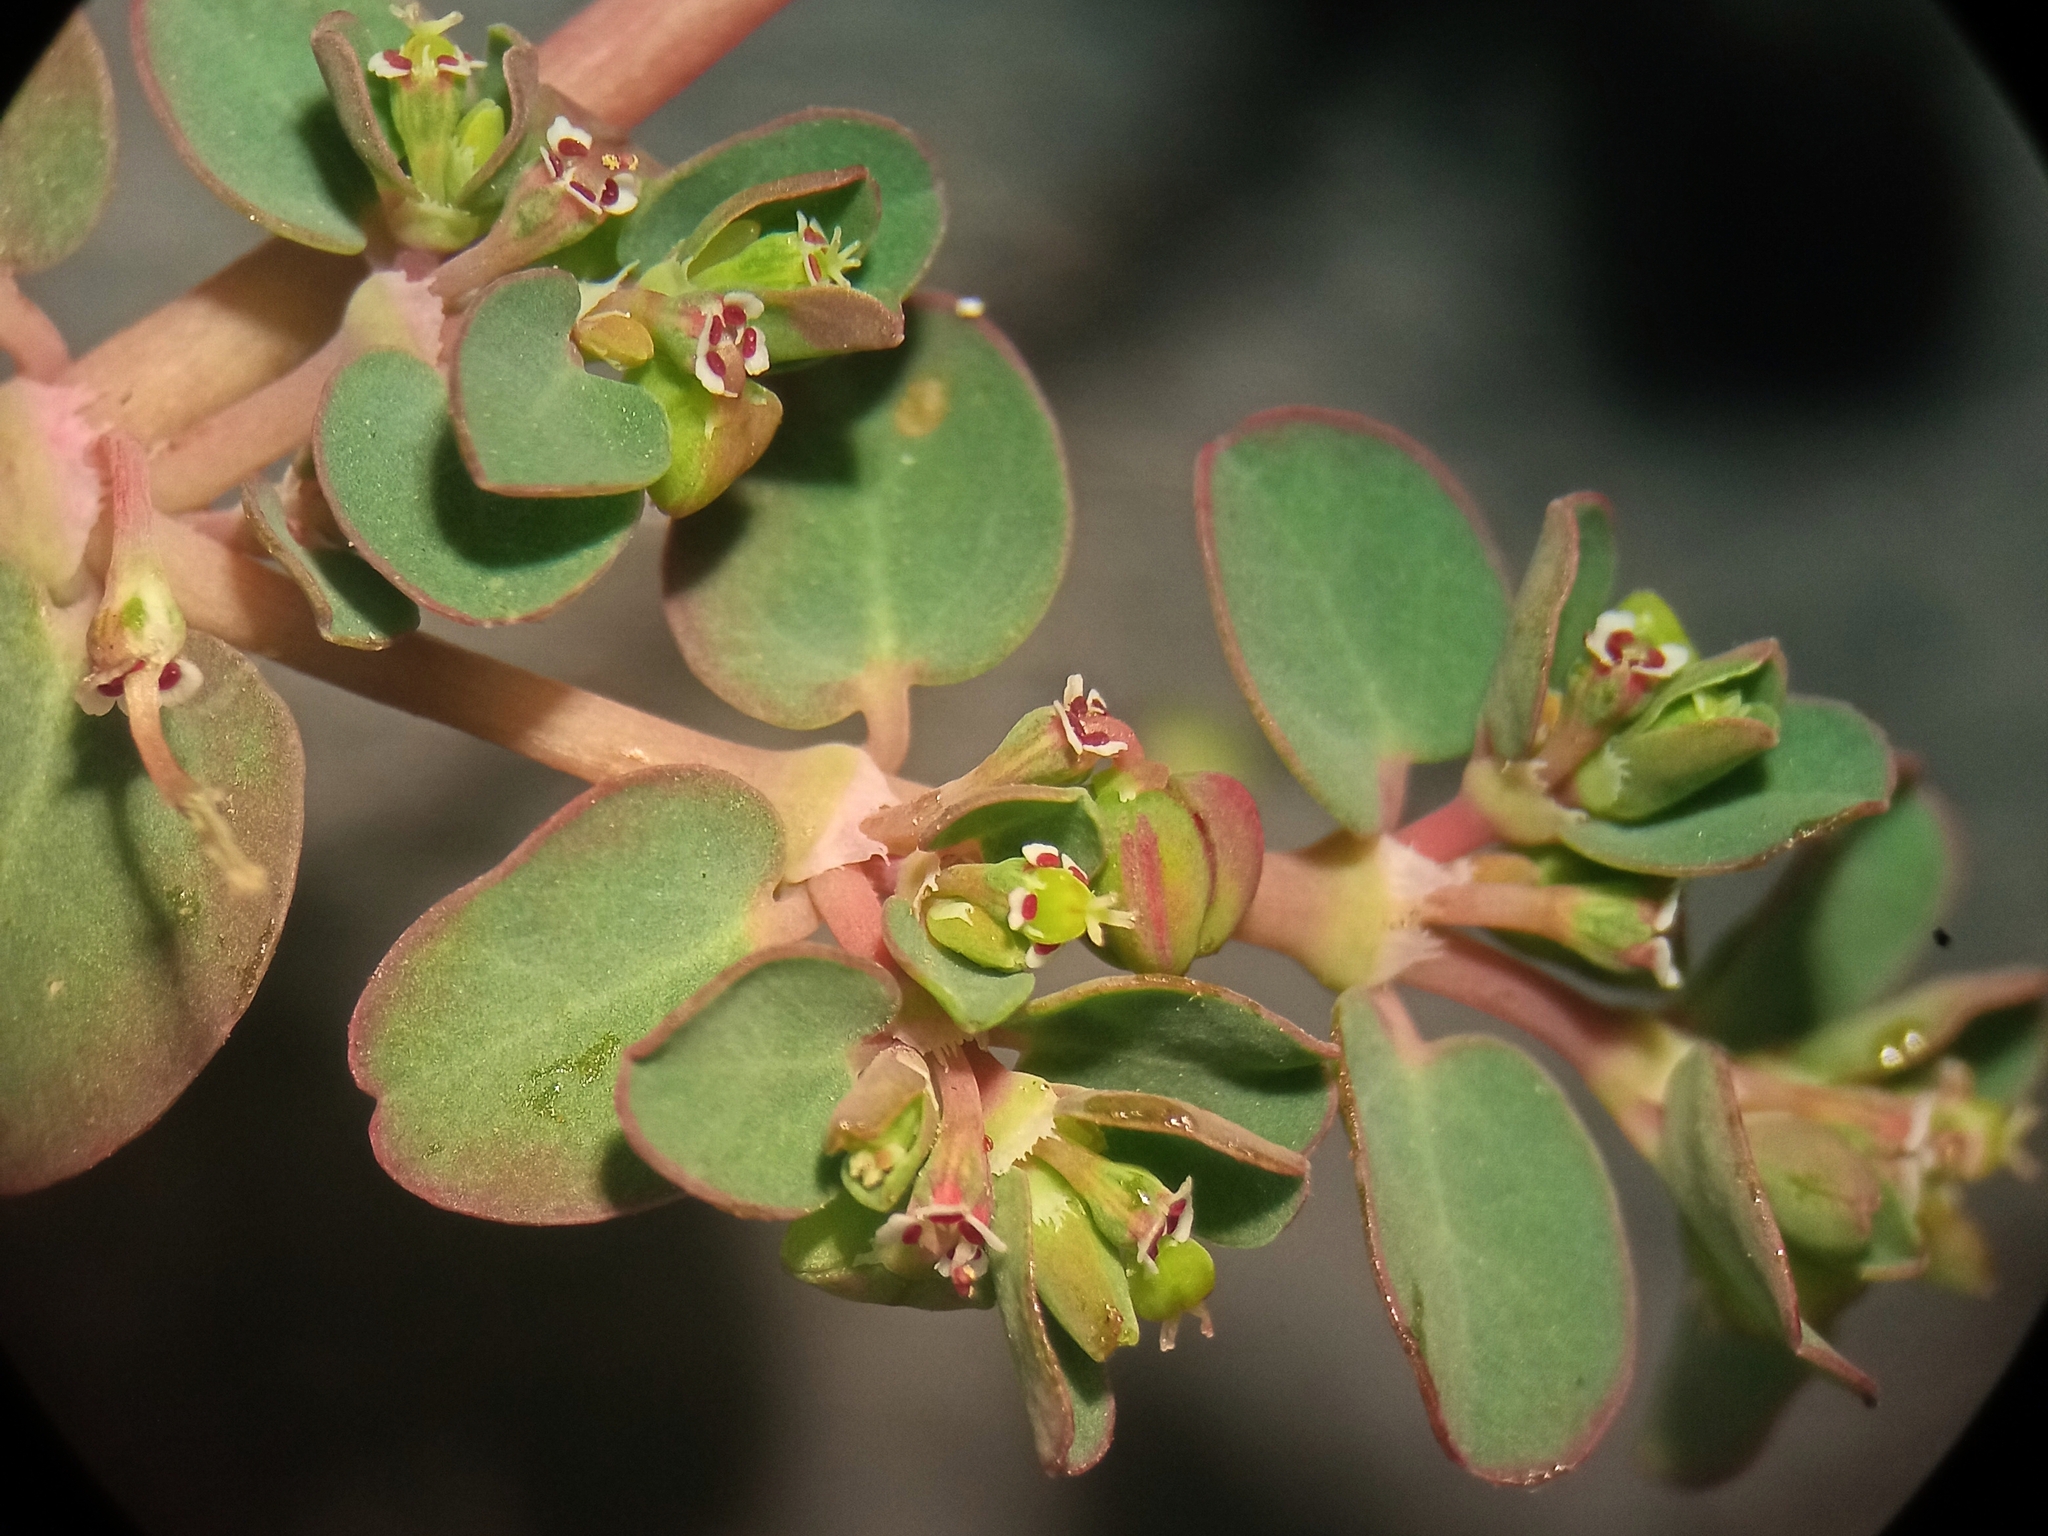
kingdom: Plantae
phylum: Tracheophyta
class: Magnoliopsida
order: Malpighiales
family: Euphorbiaceae
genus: Euphorbia
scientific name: Euphorbia serpens
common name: Matted sandmat
